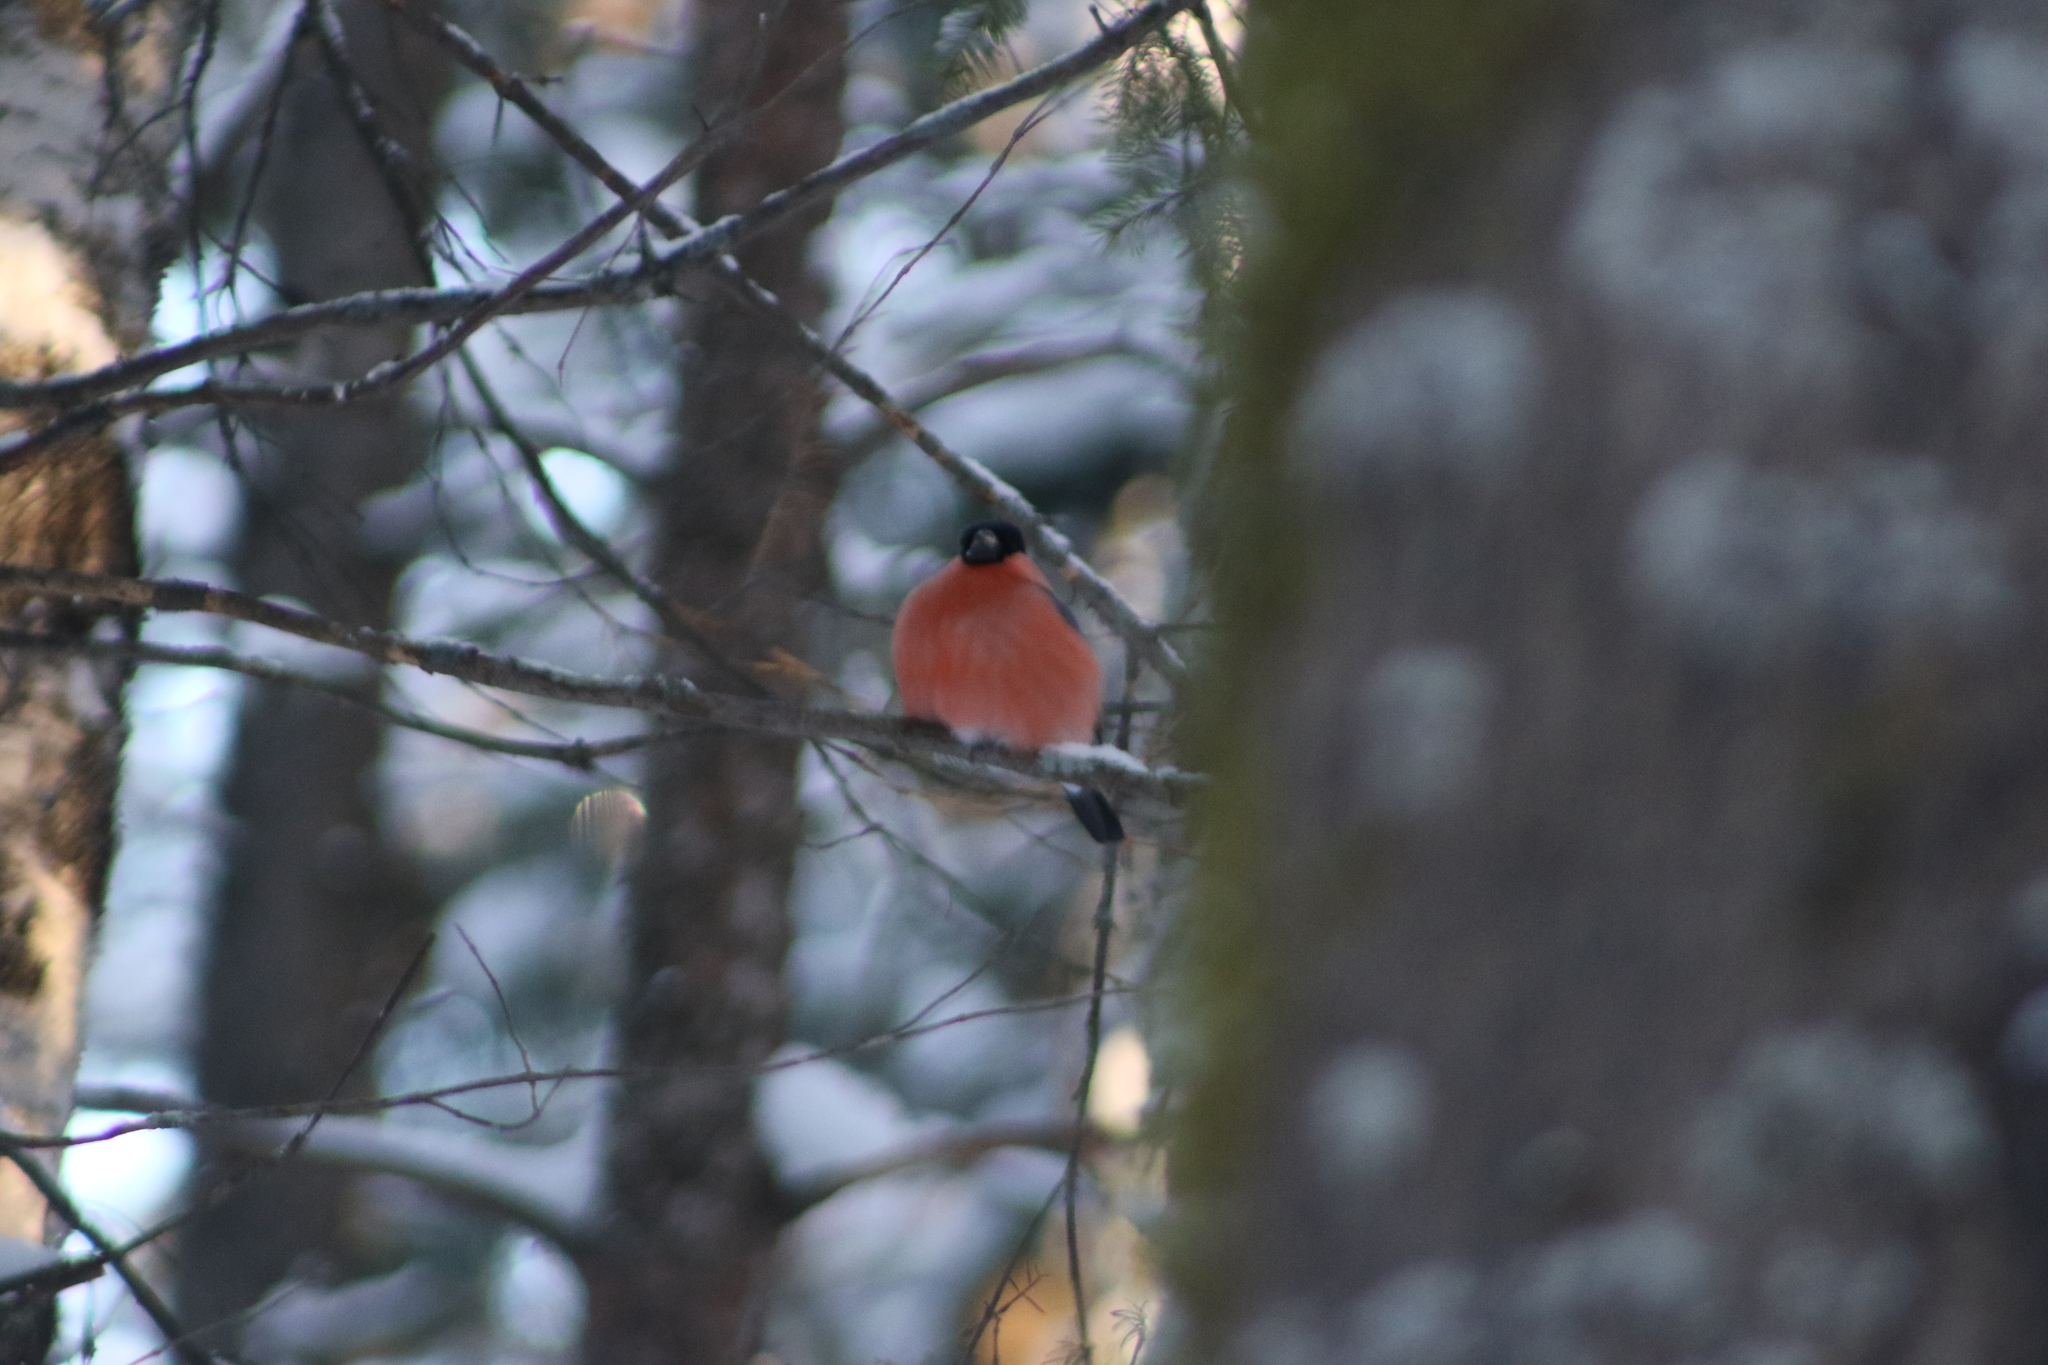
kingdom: Animalia
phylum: Chordata
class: Aves
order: Passeriformes
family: Fringillidae
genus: Pyrrhula
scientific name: Pyrrhula pyrrhula
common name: Eurasian bullfinch
